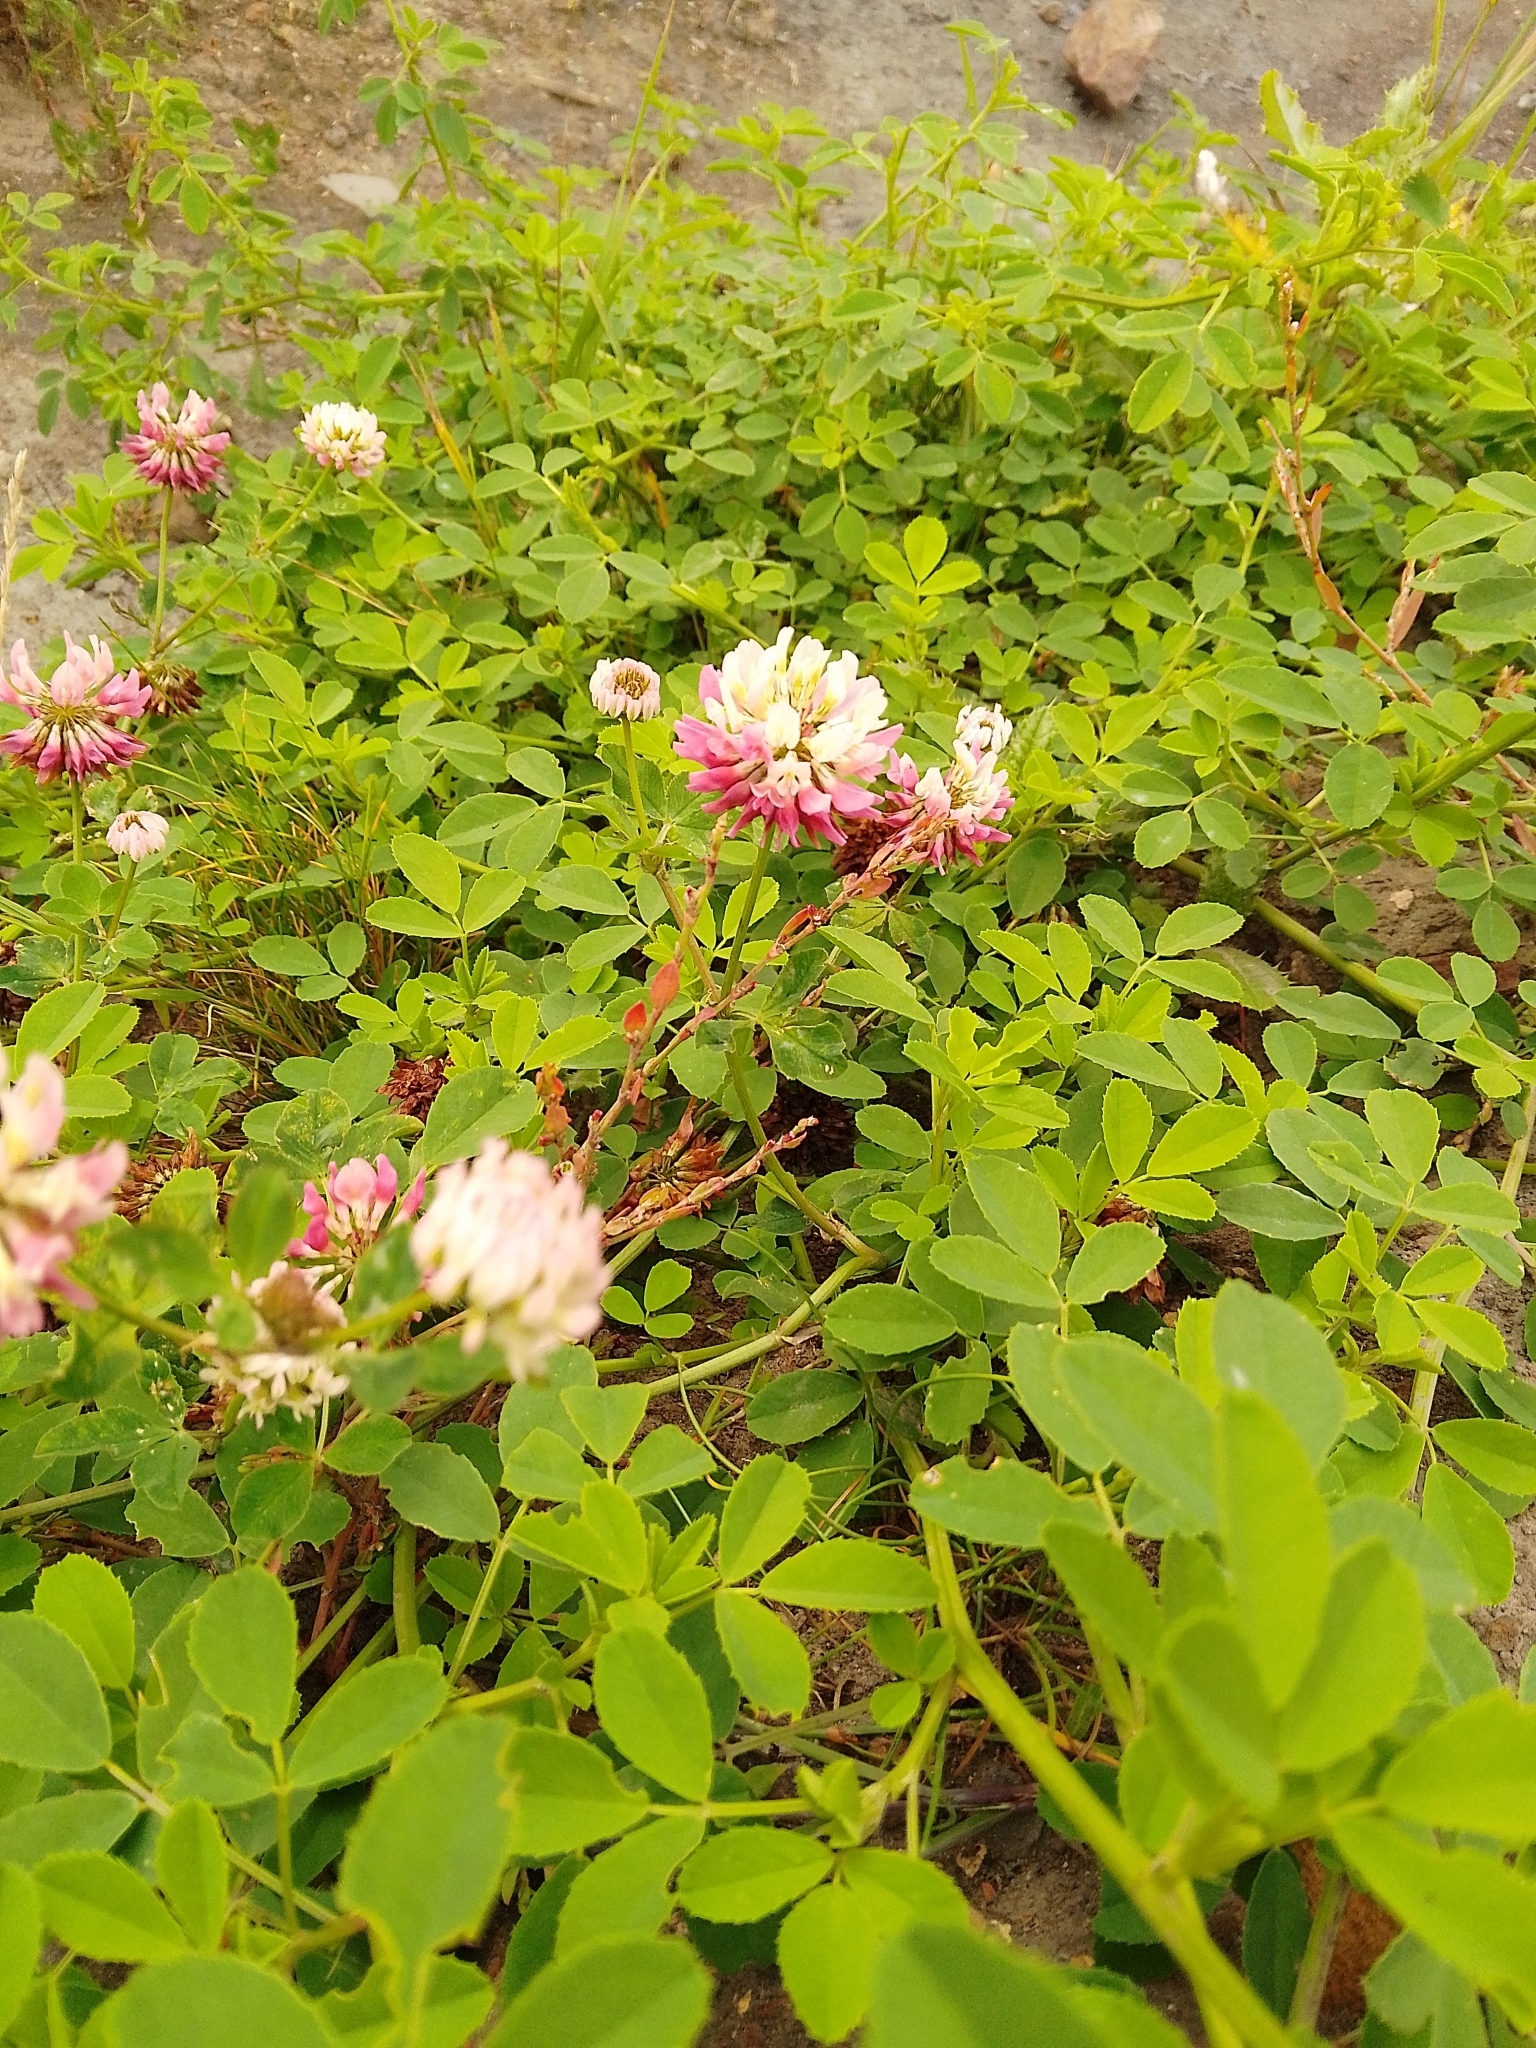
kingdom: Plantae
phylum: Tracheophyta
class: Magnoliopsida
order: Fabales
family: Fabaceae
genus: Trifolium
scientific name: Trifolium hybridum
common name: Alsike clover
